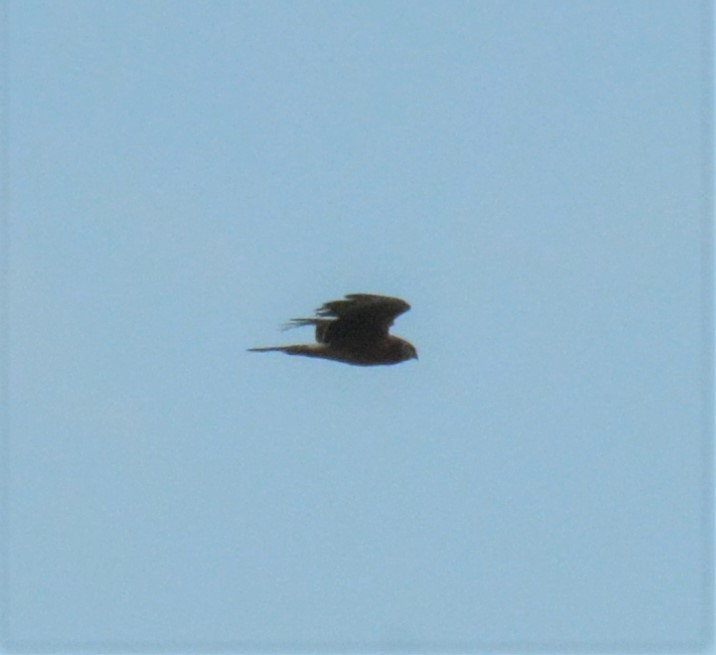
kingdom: Animalia
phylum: Chordata
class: Aves
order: Accipitriformes
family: Accipitridae
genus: Circus
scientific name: Circus cyaneus
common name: Hen harrier
